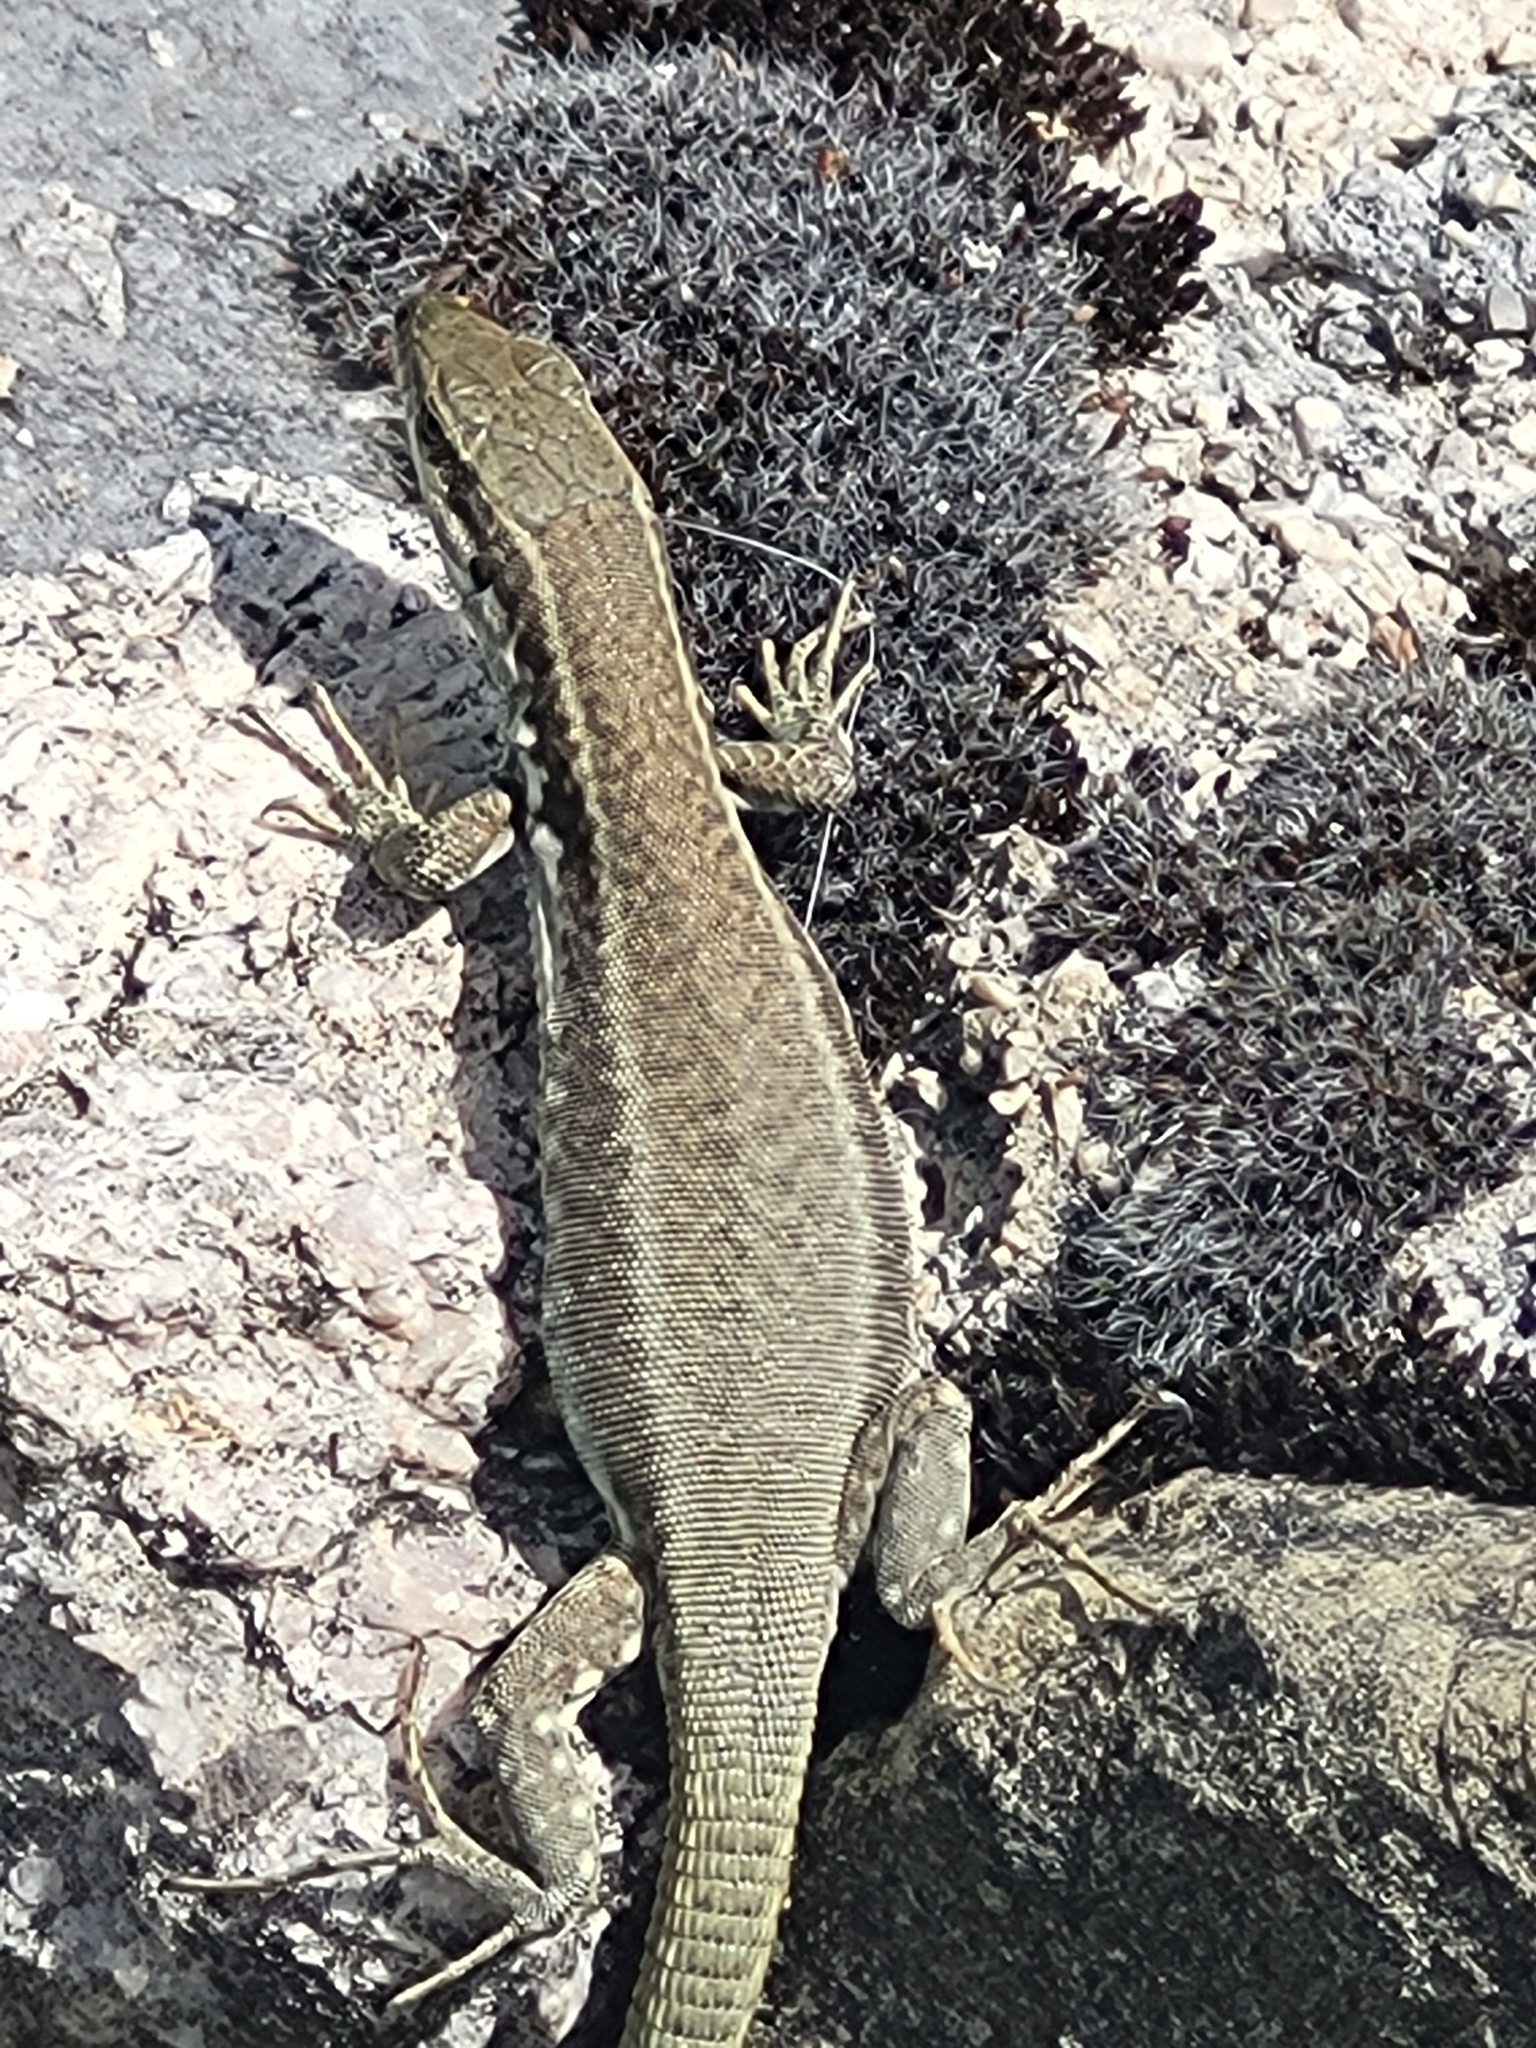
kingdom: Animalia
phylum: Chordata
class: Squamata
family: Lacertidae
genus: Podarcis
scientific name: Podarcis muralis
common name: Common wall lizard
